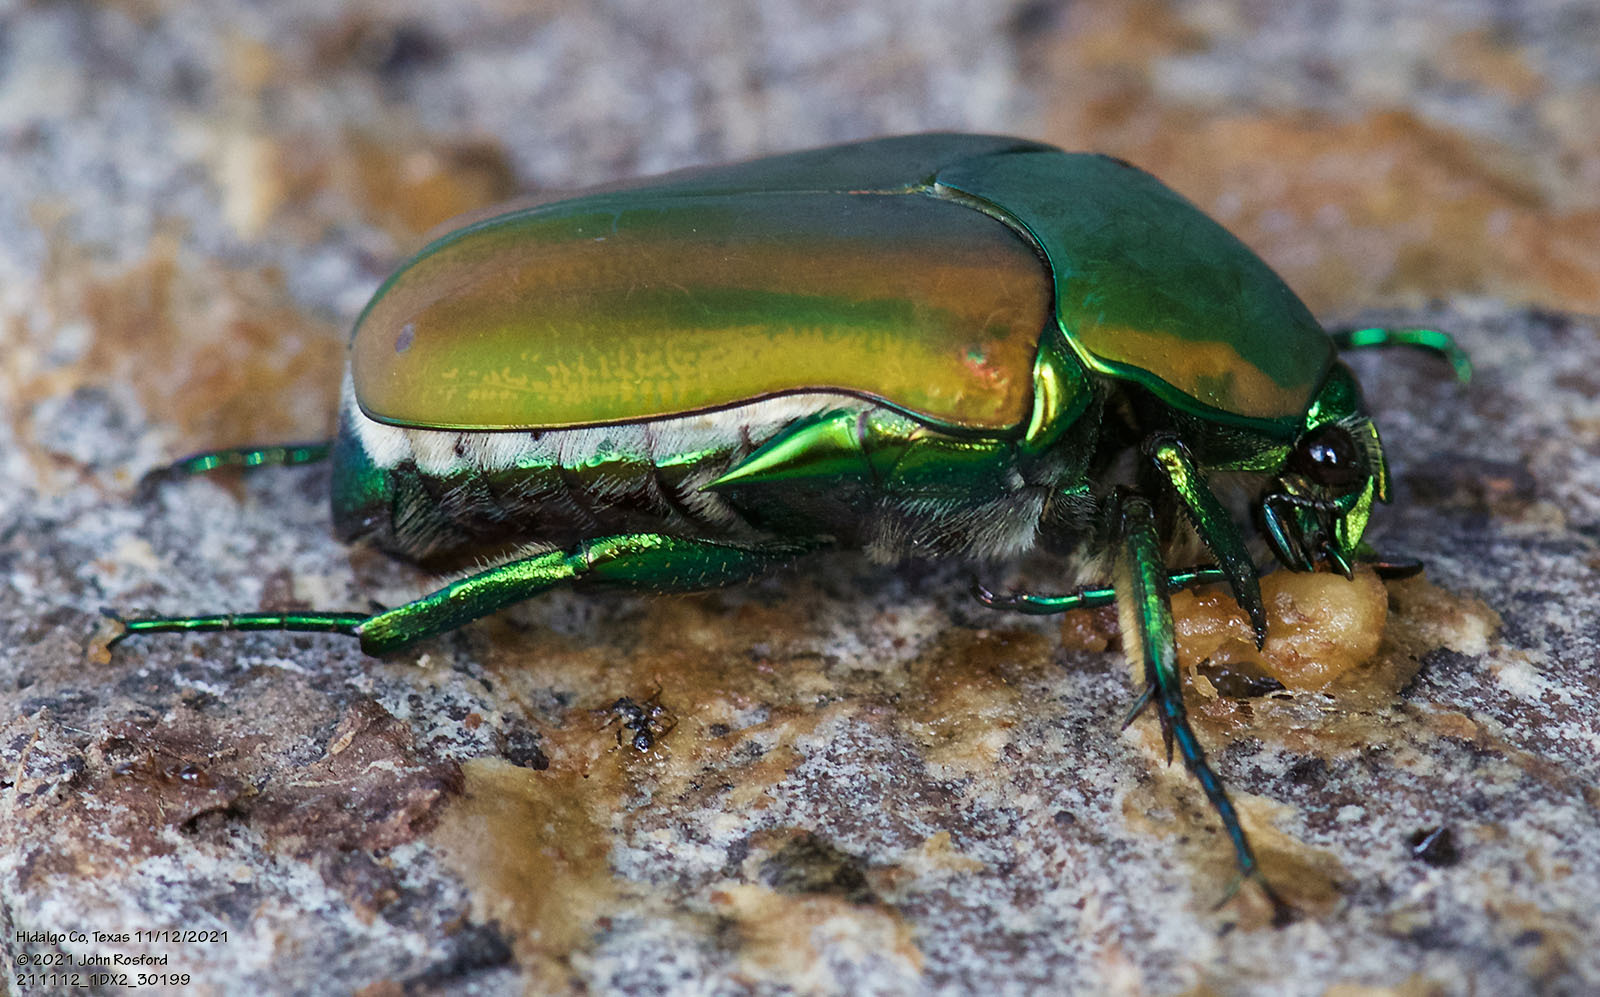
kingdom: Animalia
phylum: Arthropoda
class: Insecta
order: Coleoptera
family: Scarabaeidae
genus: Cotinis
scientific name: Cotinis mutabilis
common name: Figeater beetle
